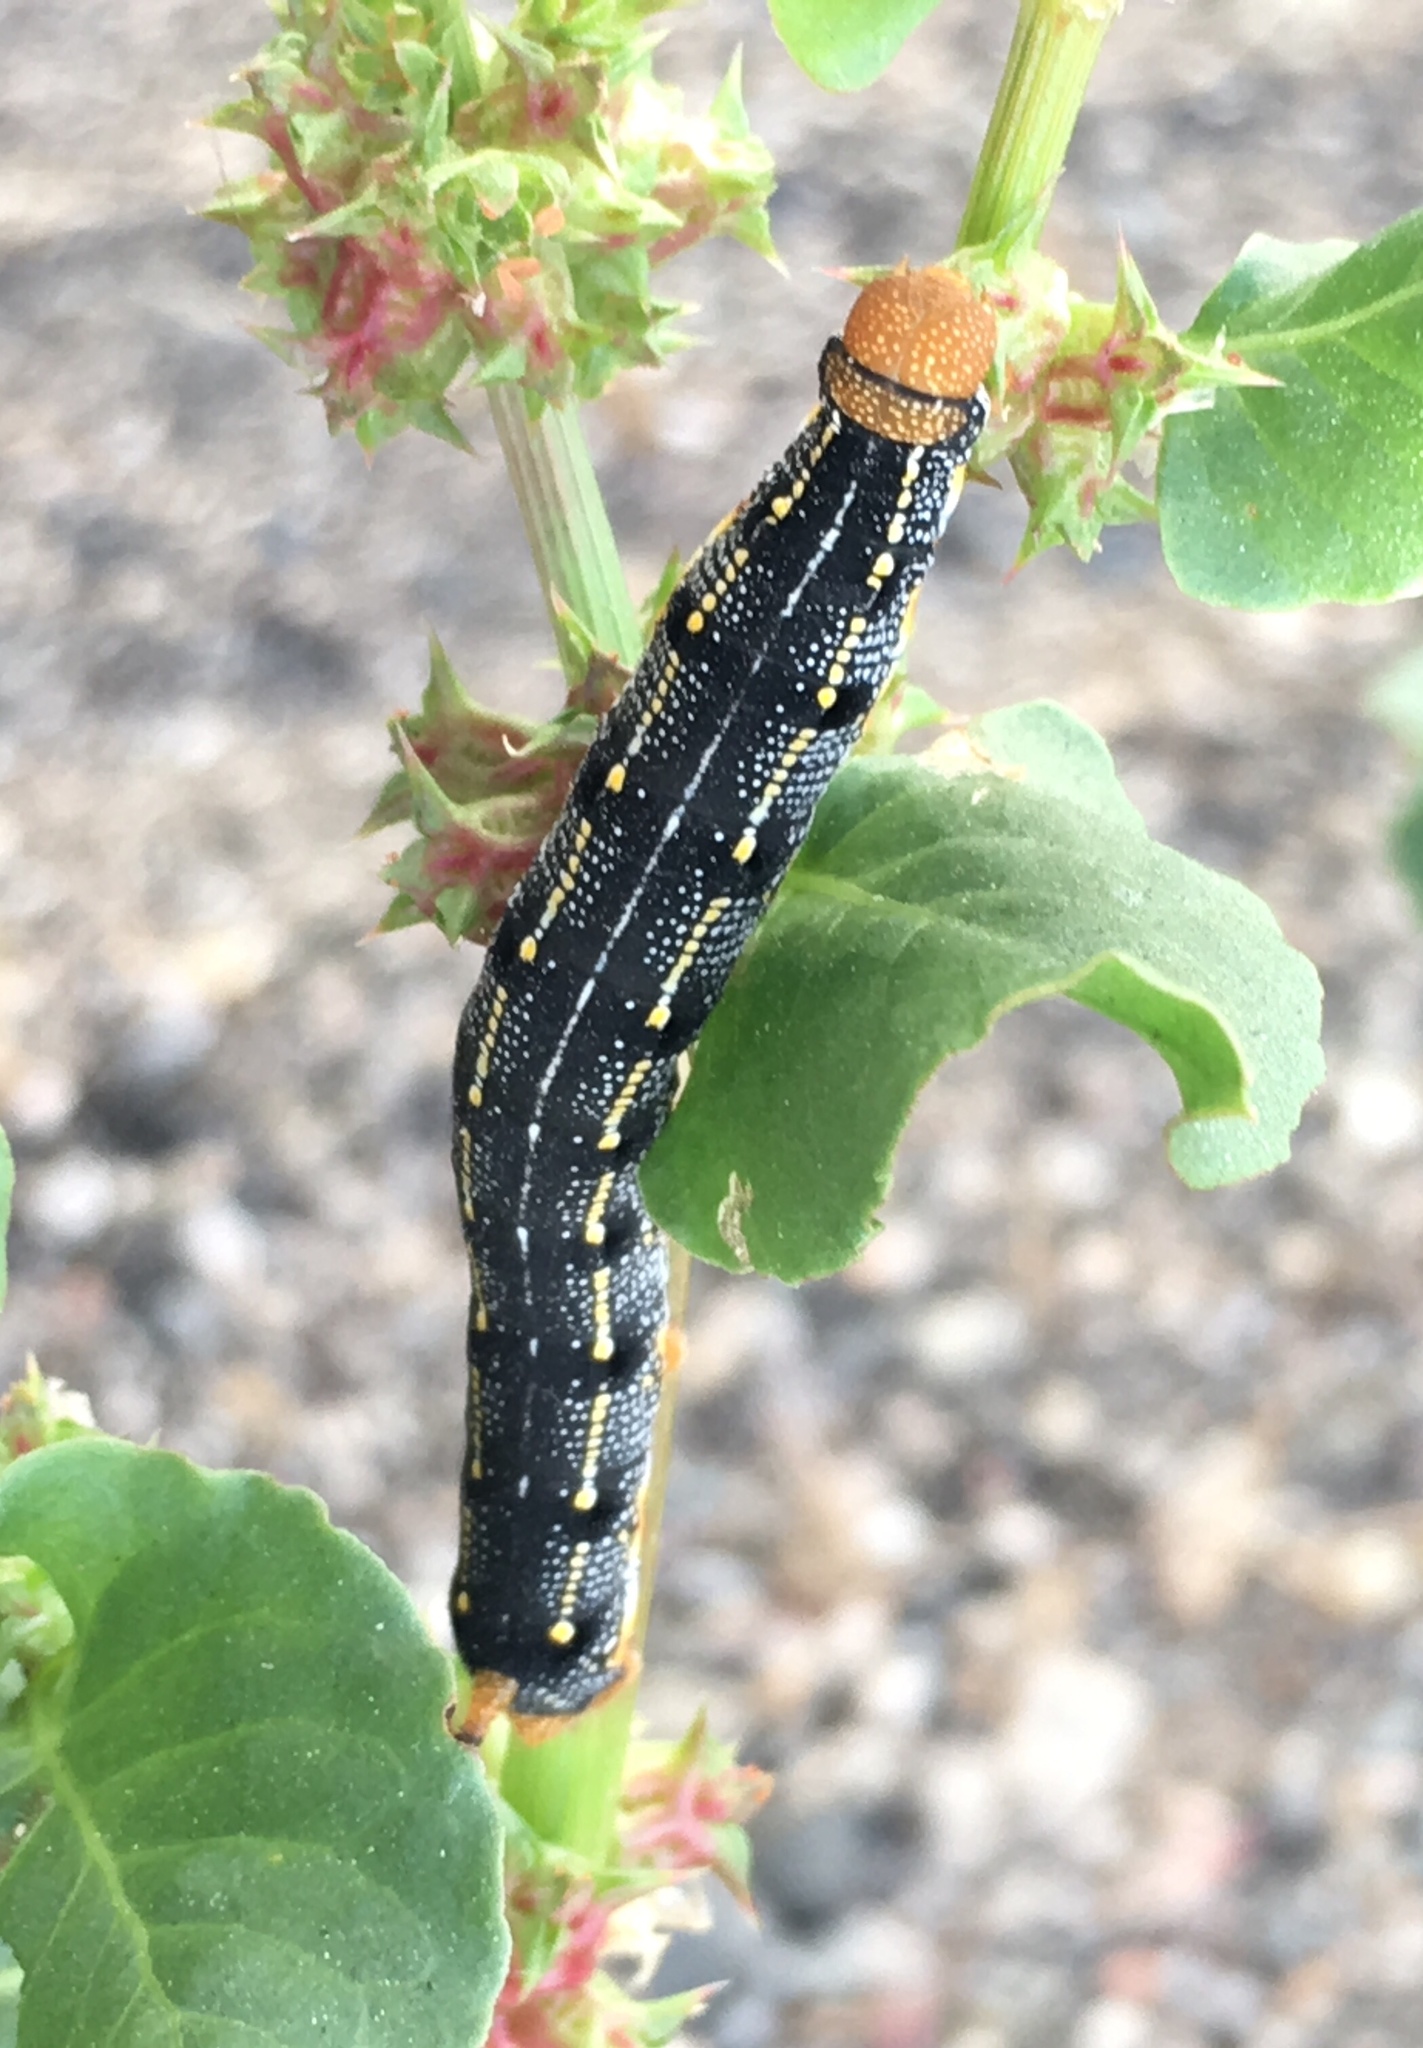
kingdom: Animalia
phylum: Arthropoda
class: Insecta
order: Lepidoptera
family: Sphingidae
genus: Hyles
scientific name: Hyles lineata
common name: White-lined sphinx
